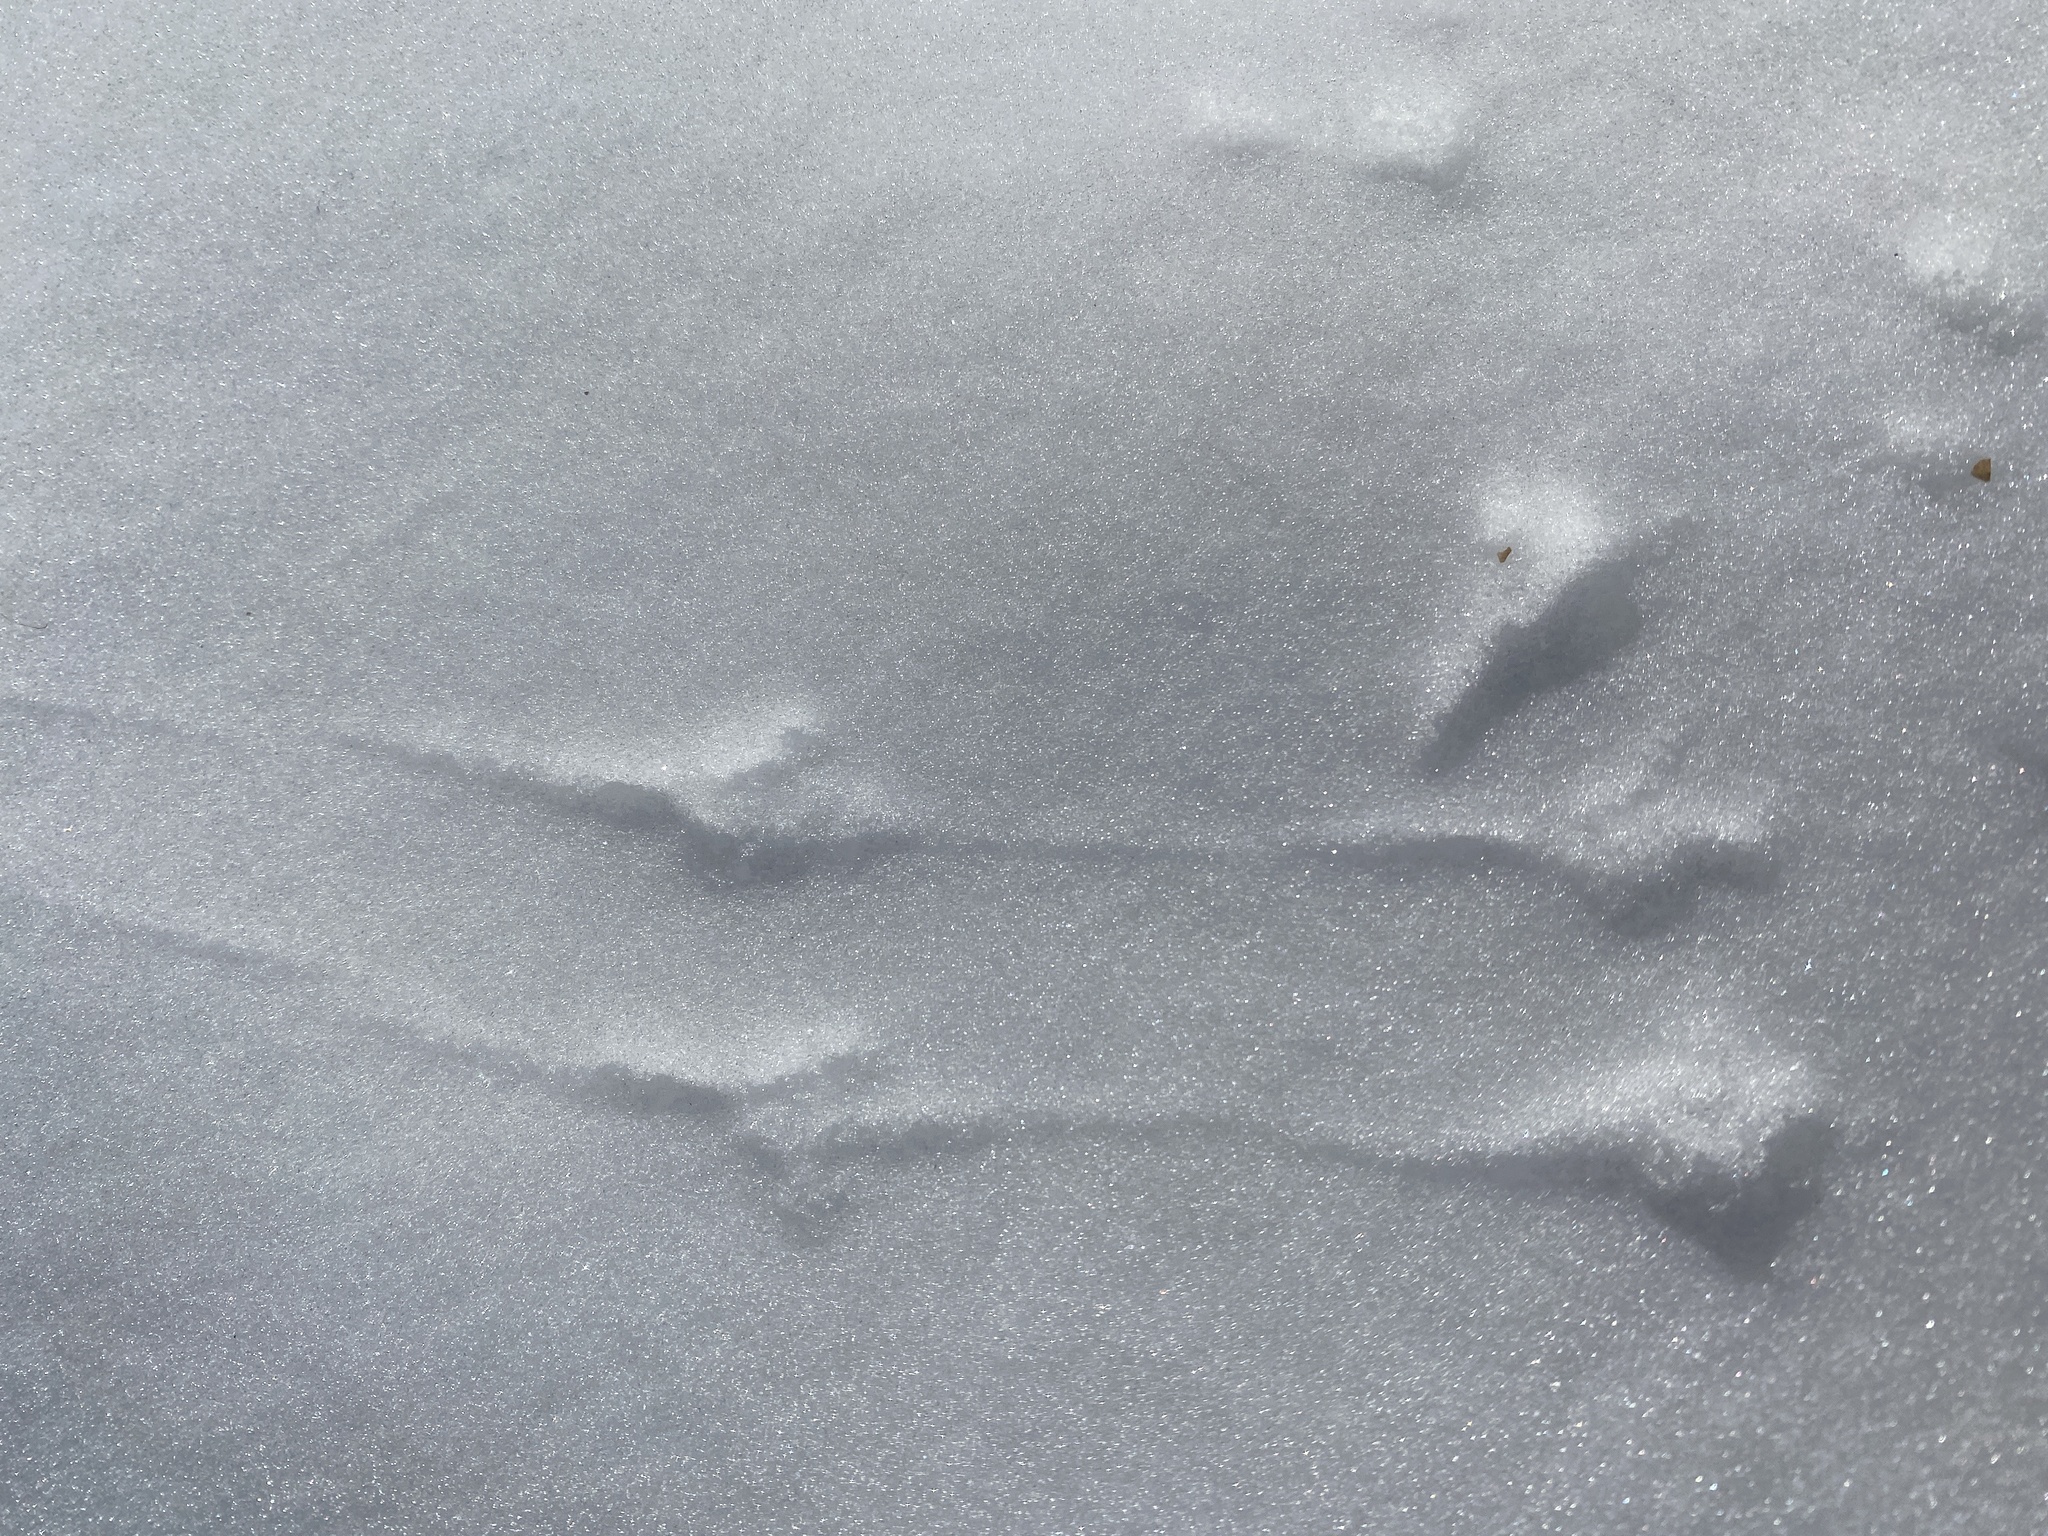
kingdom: Animalia
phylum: Chordata
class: Aves
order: Passeriformes
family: Passerellidae
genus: Spizelloides
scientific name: Spizelloides arborea
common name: American tree sparrow
